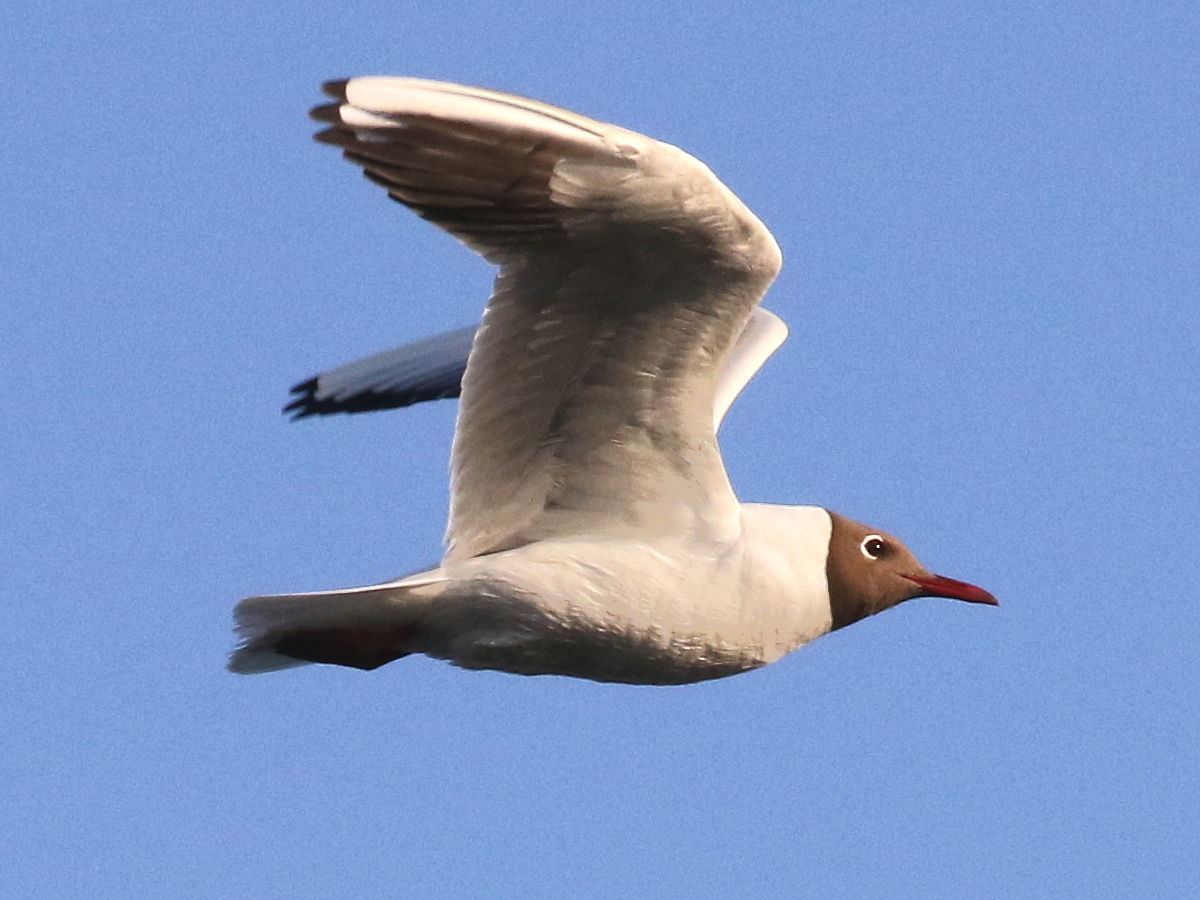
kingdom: Animalia
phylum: Chordata
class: Aves
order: Charadriiformes
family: Laridae
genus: Chroicocephalus
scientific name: Chroicocephalus ridibundus
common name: Black-headed gull
